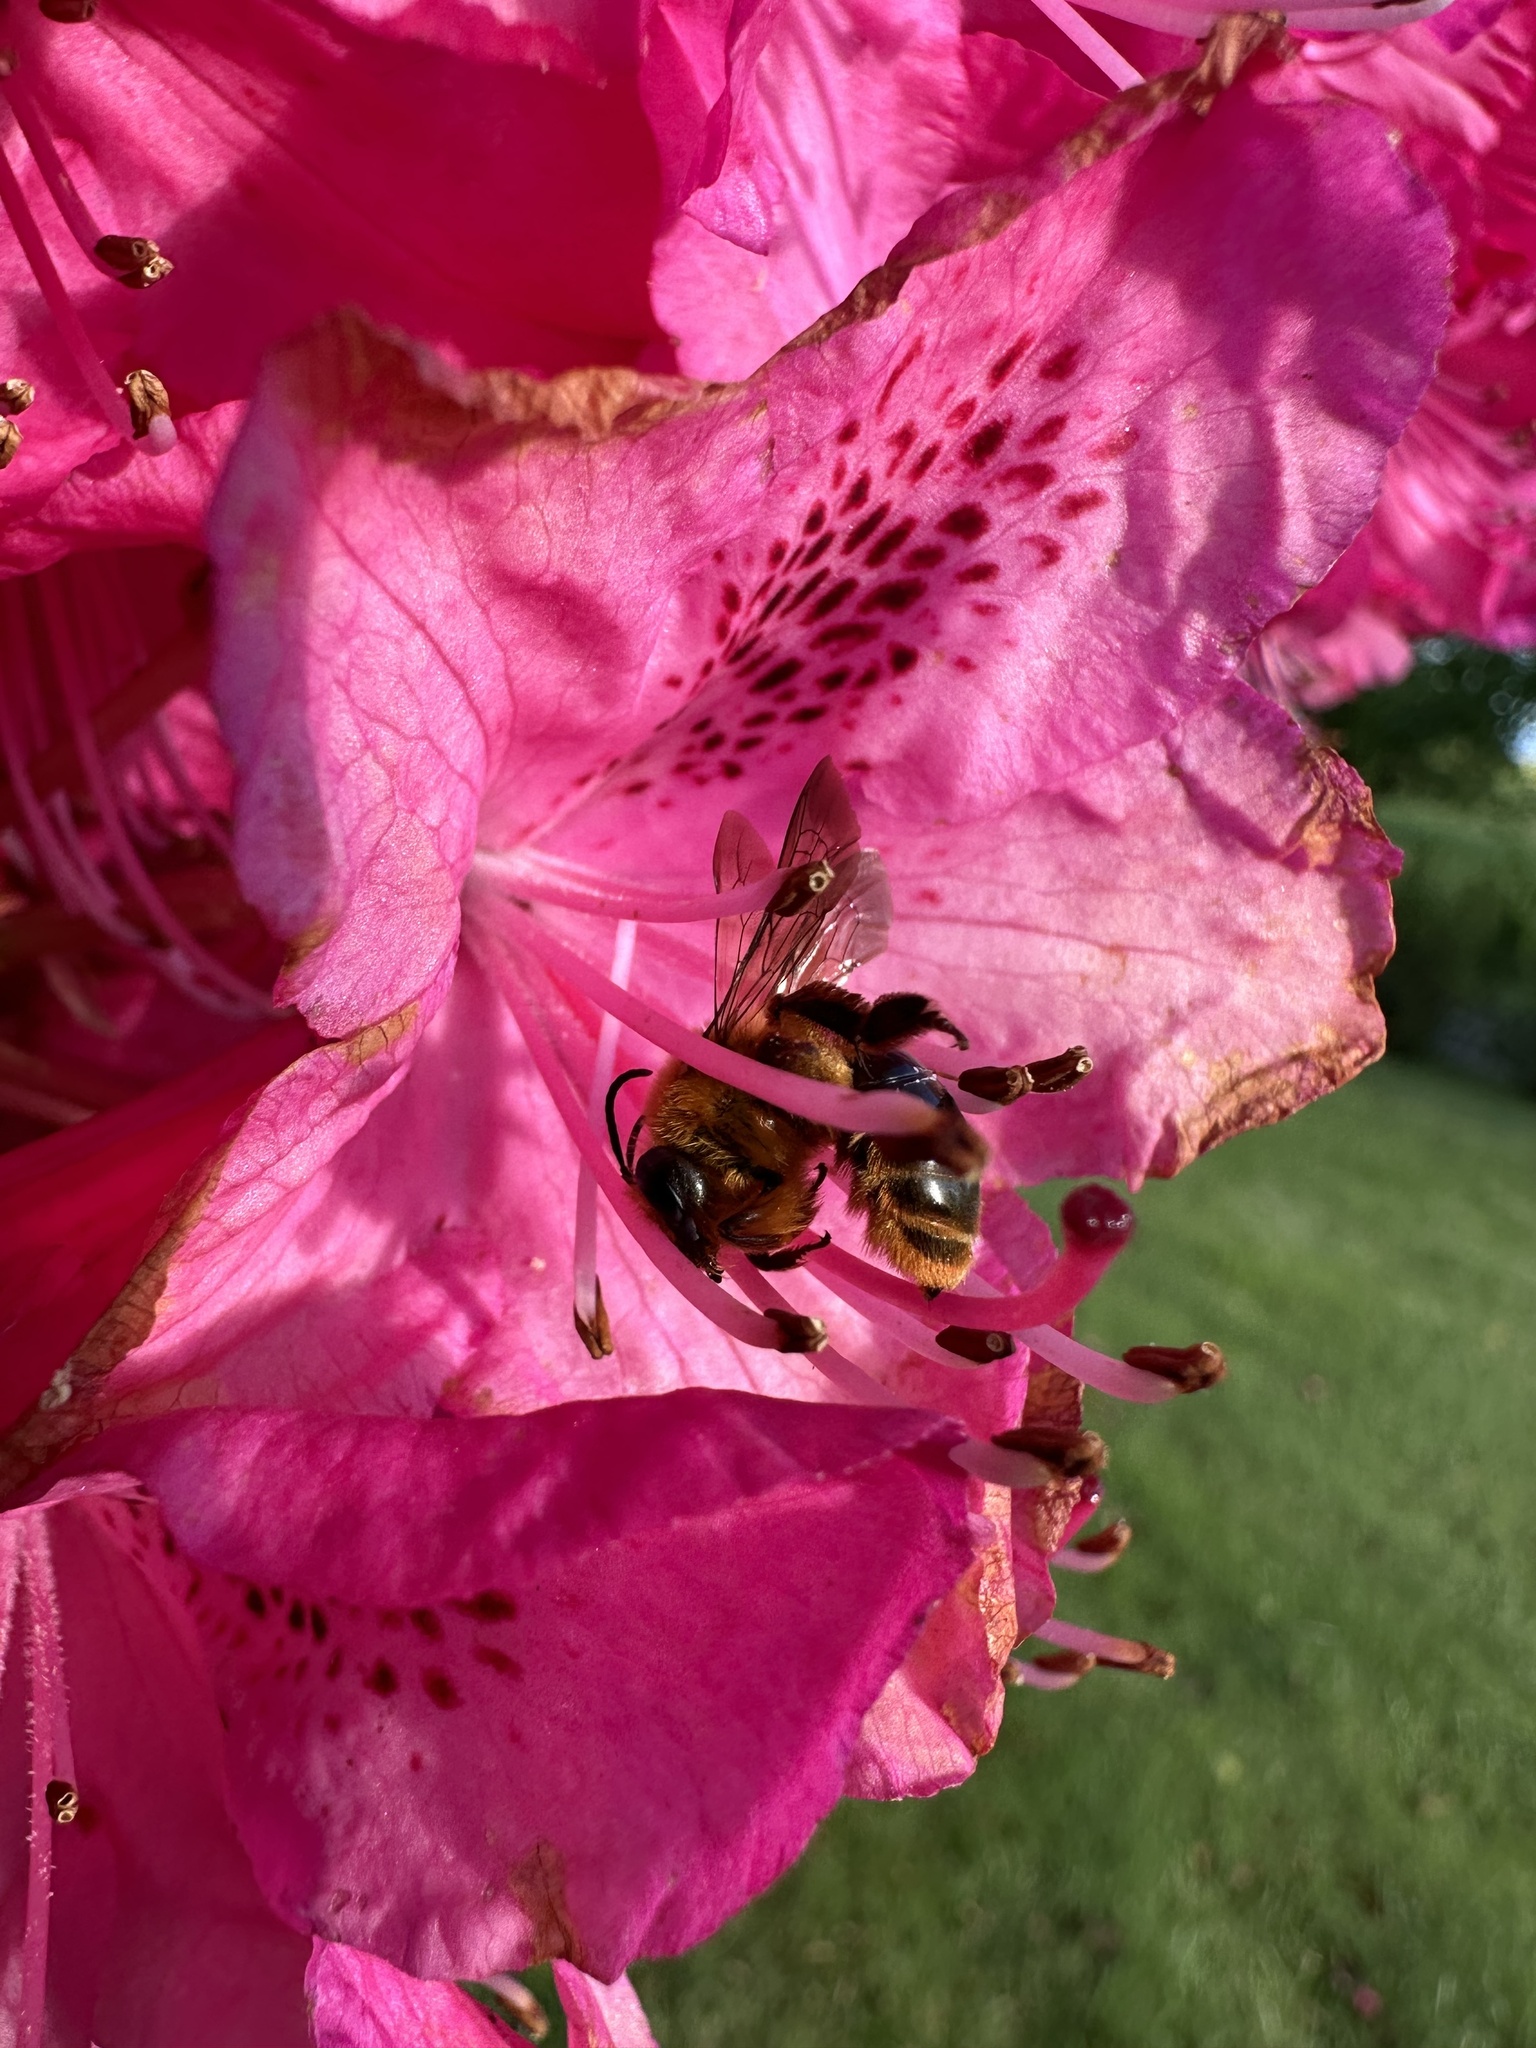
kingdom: Animalia
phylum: Arthropoda
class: Insecta
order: Hymenoptera
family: Colletidae
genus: Cadeguala
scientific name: Cadeguala occidentalis
